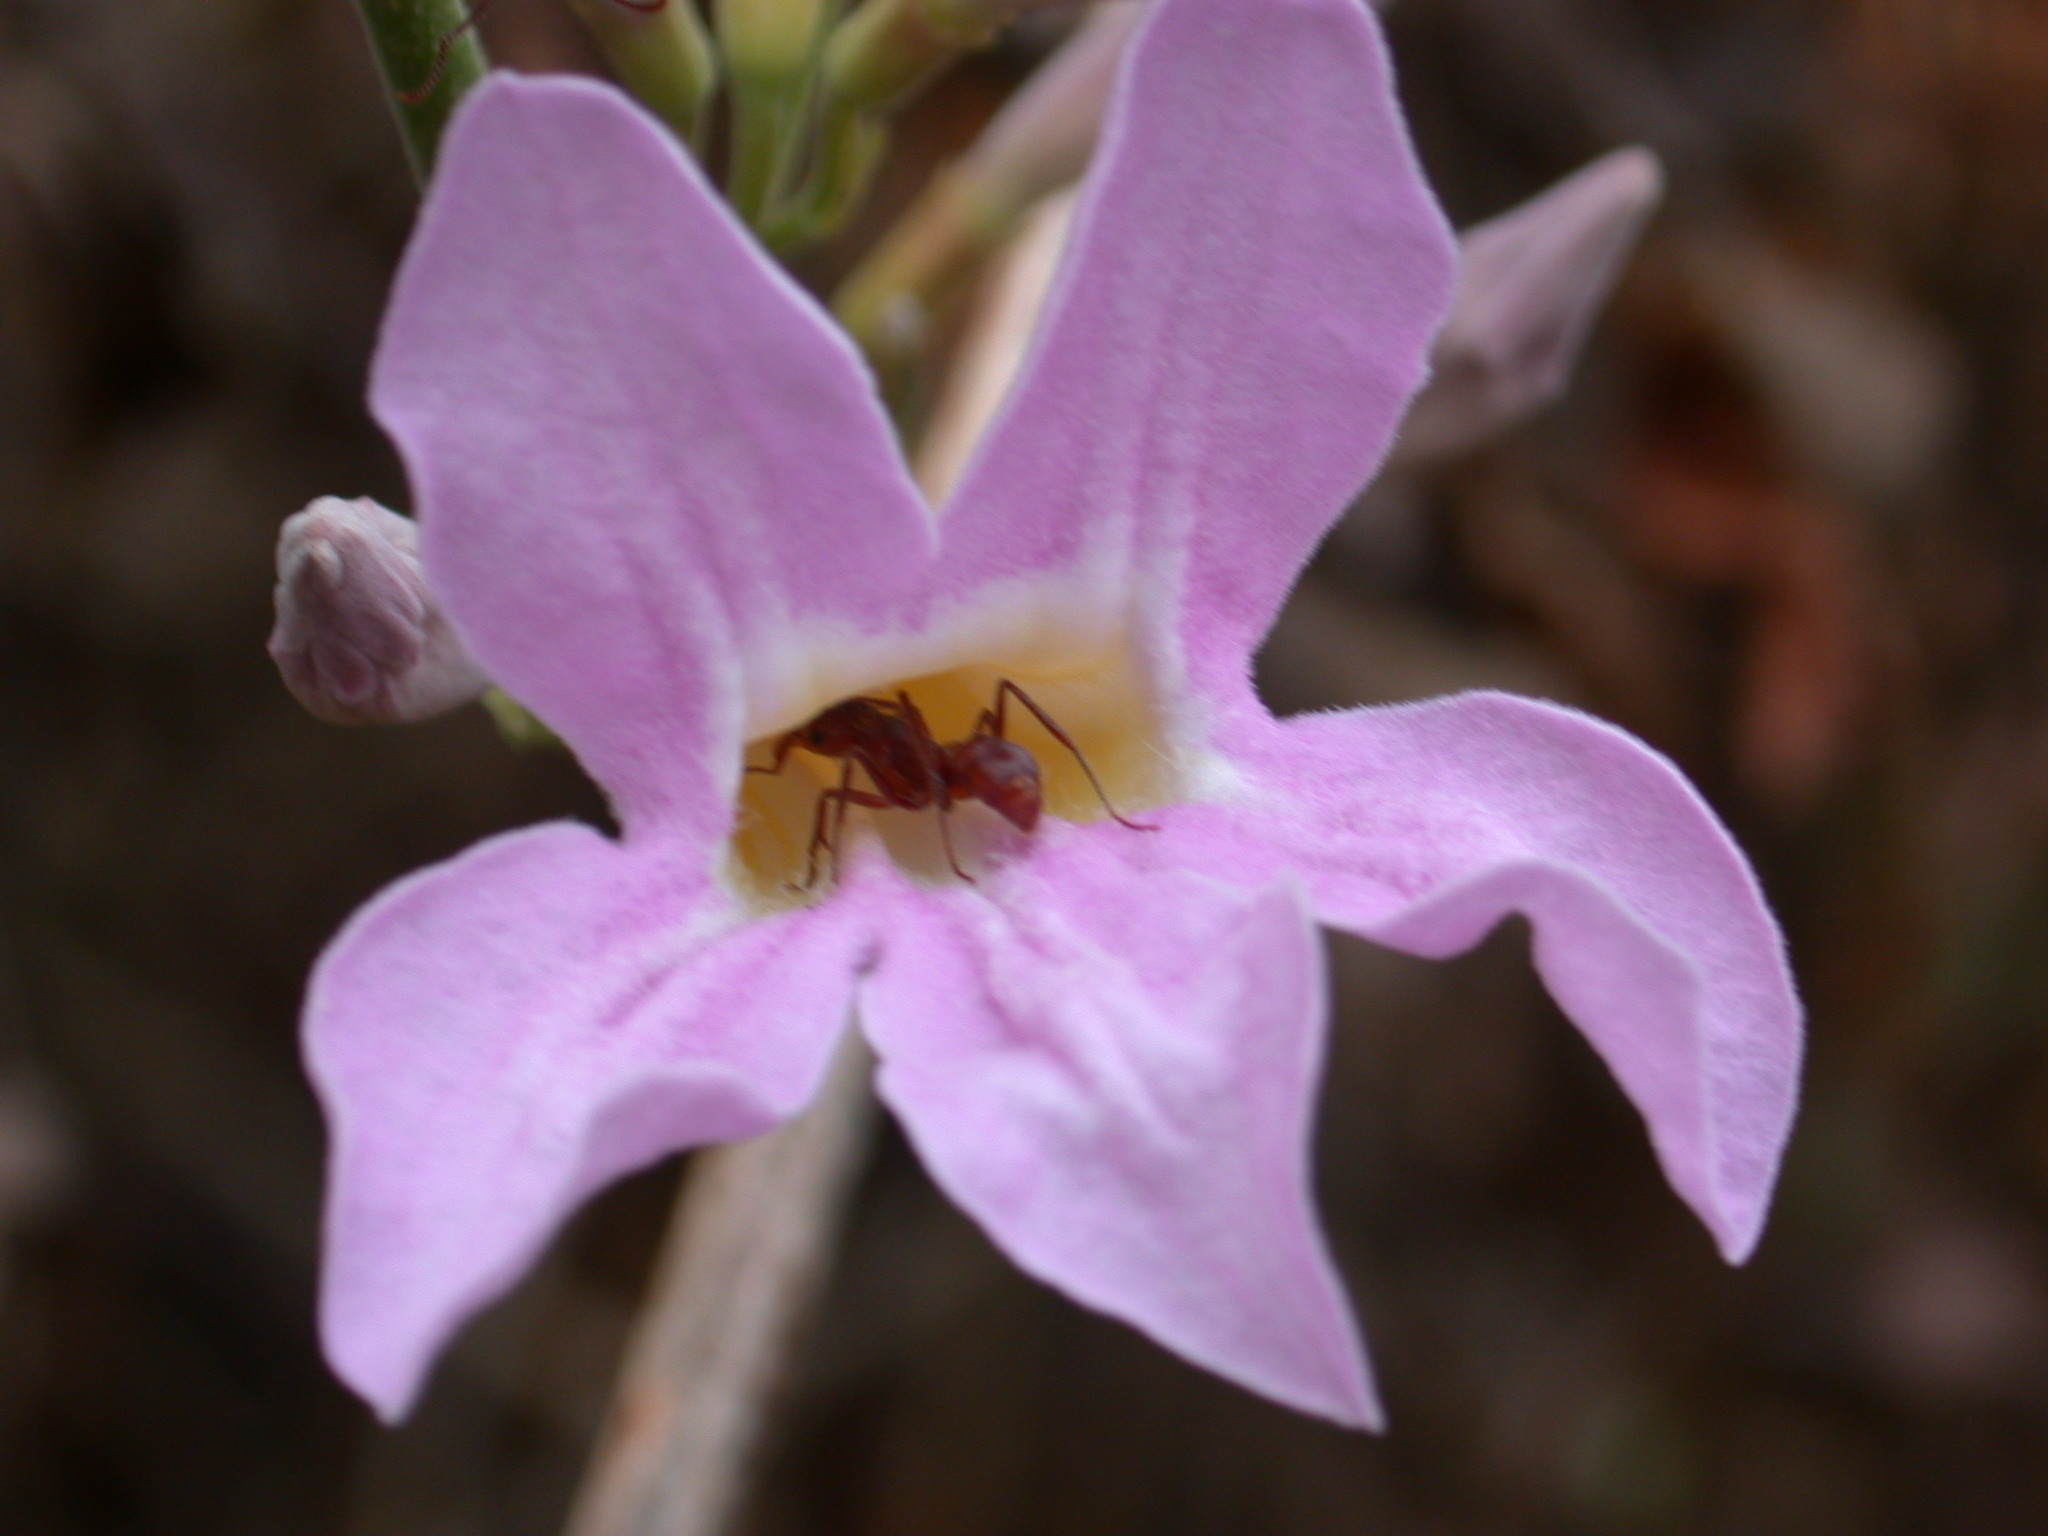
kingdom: Plantae
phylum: Tracheophyta
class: Magnoliopsida
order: Lamiales
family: Bignoniaceae
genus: Xylophragma
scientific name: Xylophragma seemanniana
